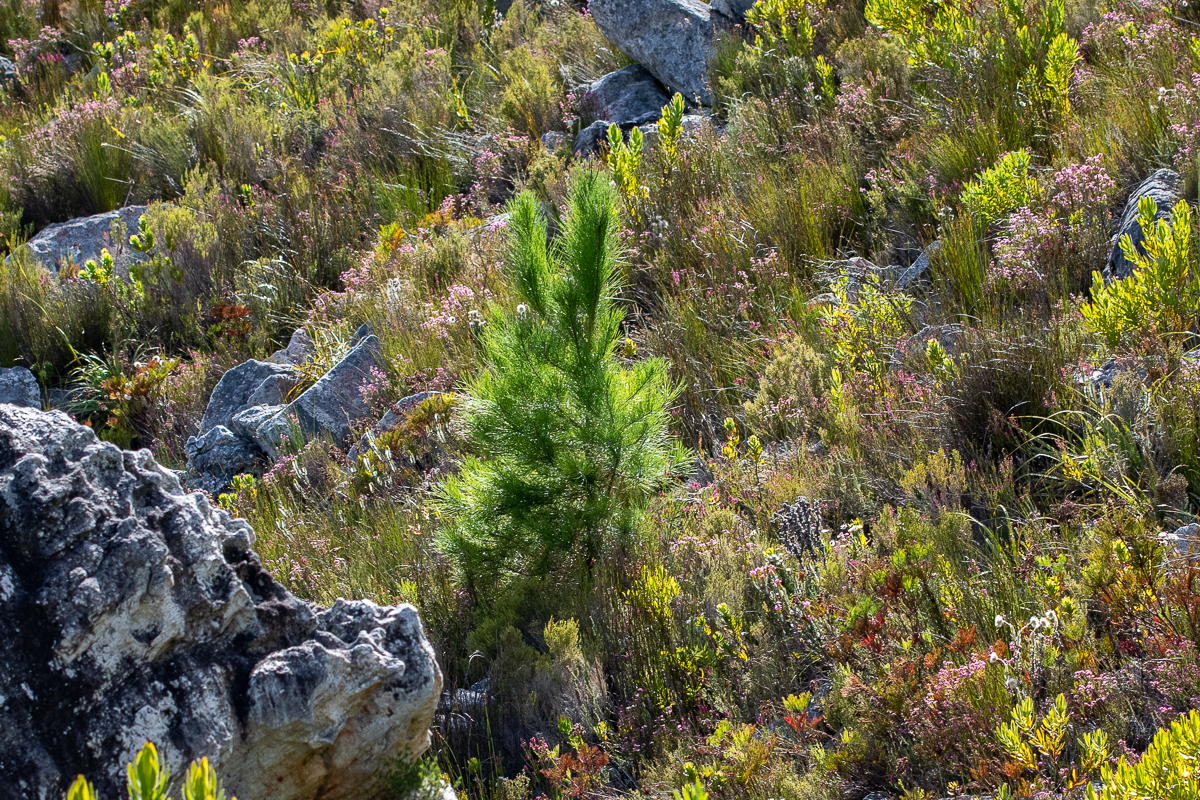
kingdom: Plantae
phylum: Tracheophyta
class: Pinopsida
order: Pinales
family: Pinaceae
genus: Pinus
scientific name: Pinus pinaster
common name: Maritime pine
